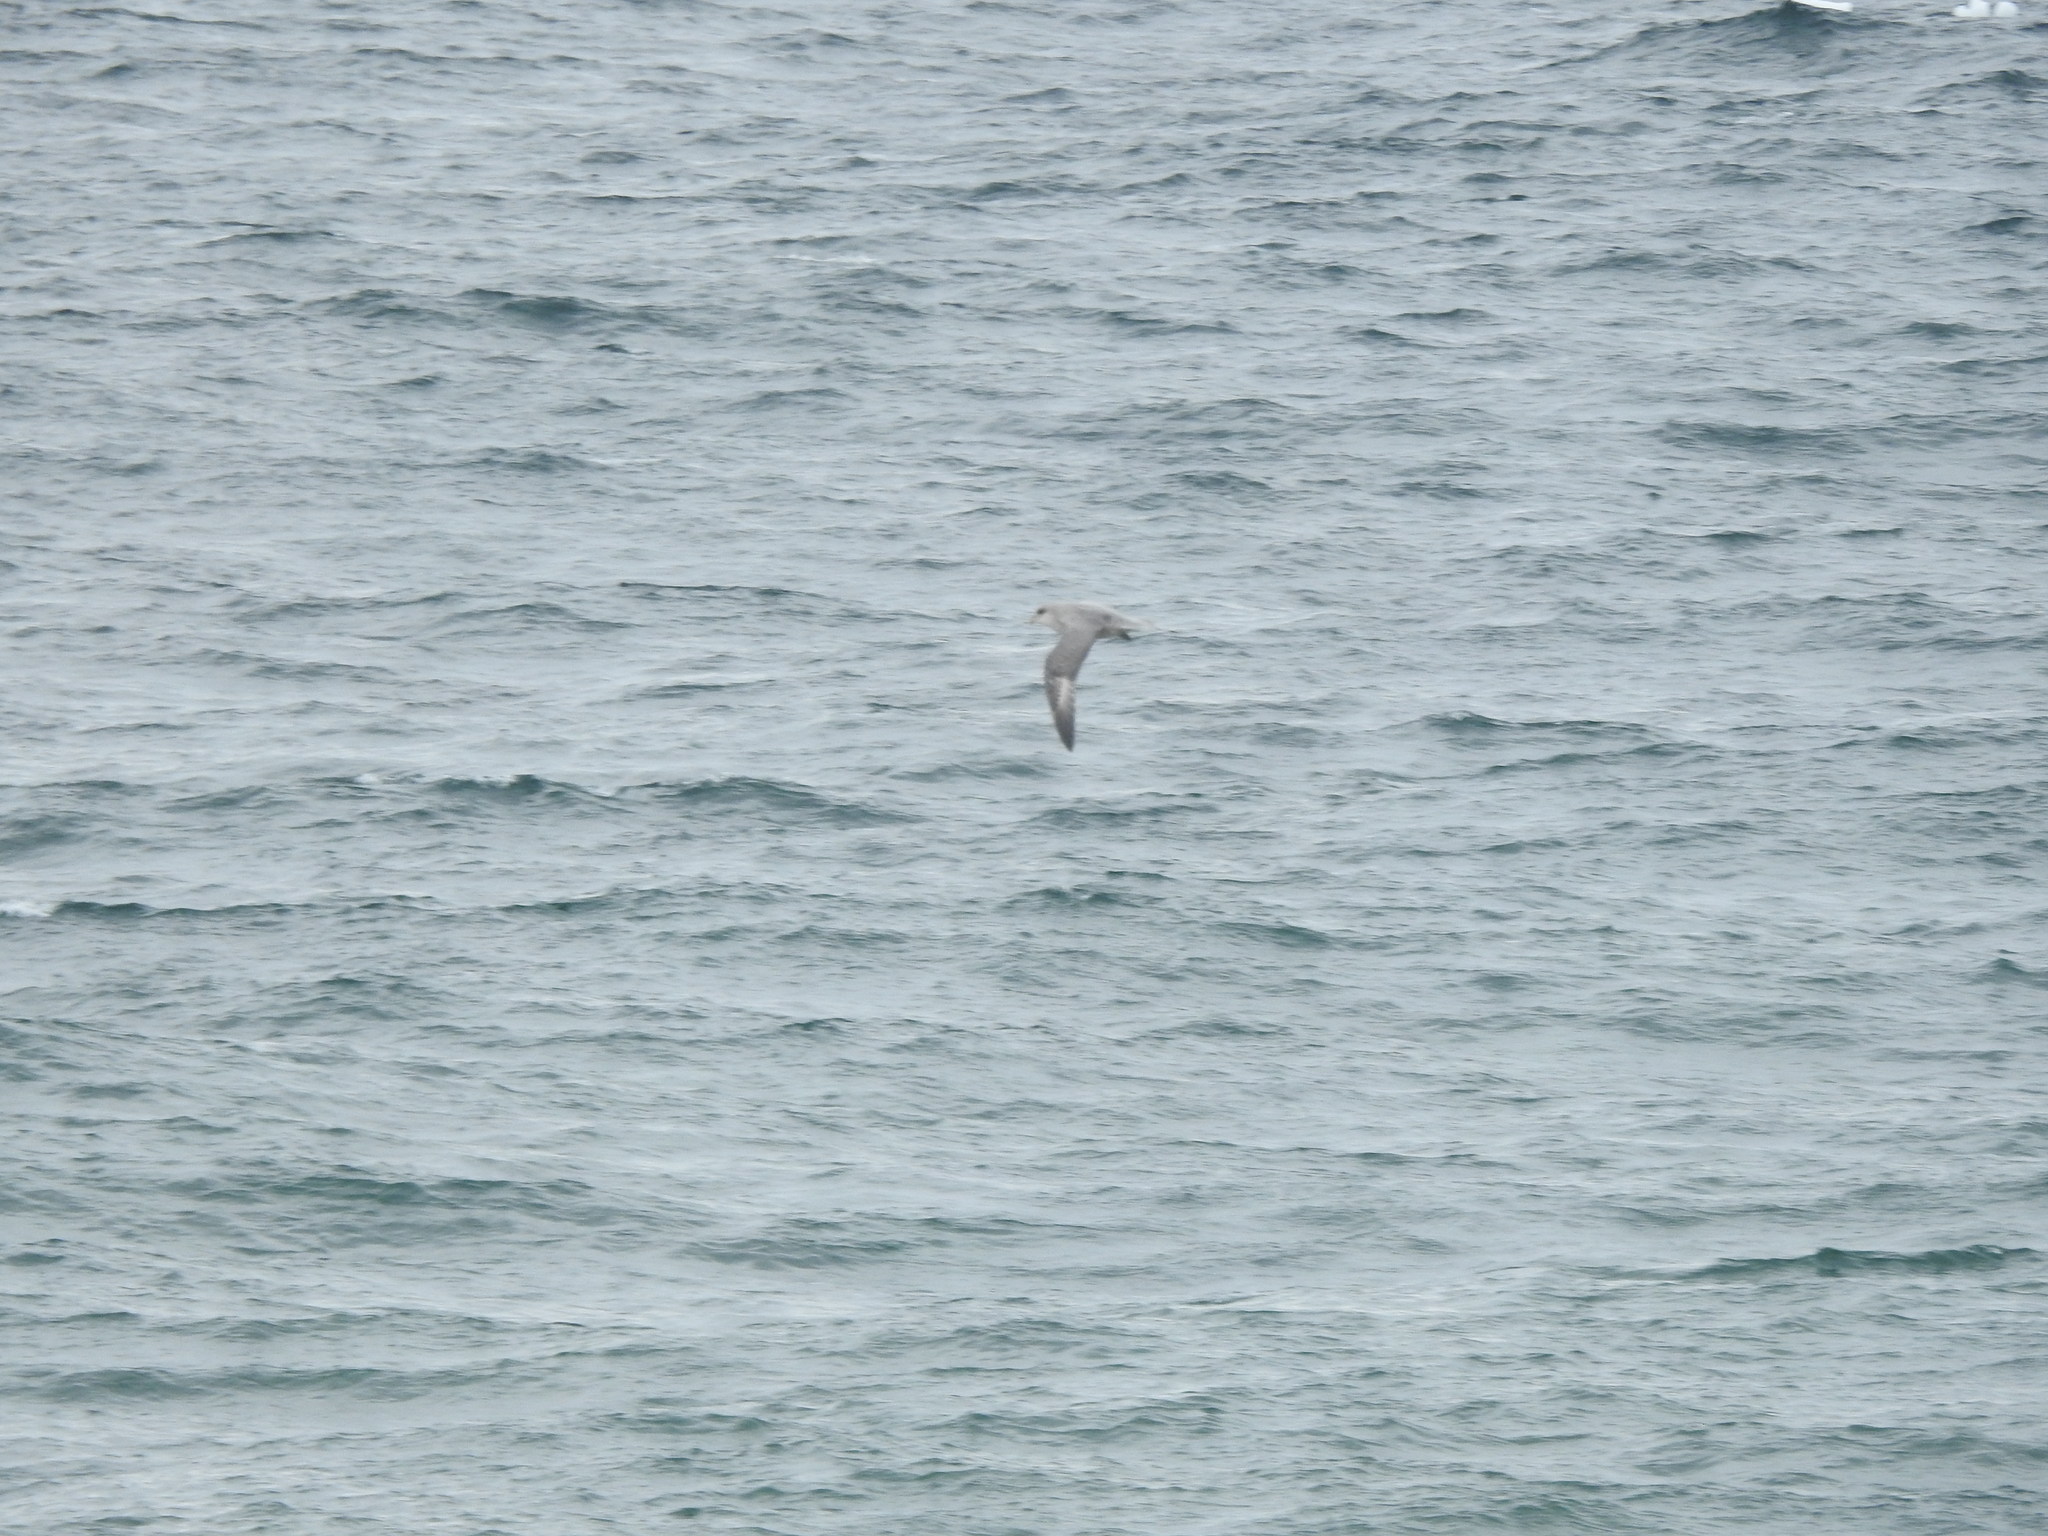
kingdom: Animalia
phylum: Chordata
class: Aves
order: Procellariiformes
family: Procellariidae
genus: Fulmarus
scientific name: Fulmarus glacialis
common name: Northern fulmar
